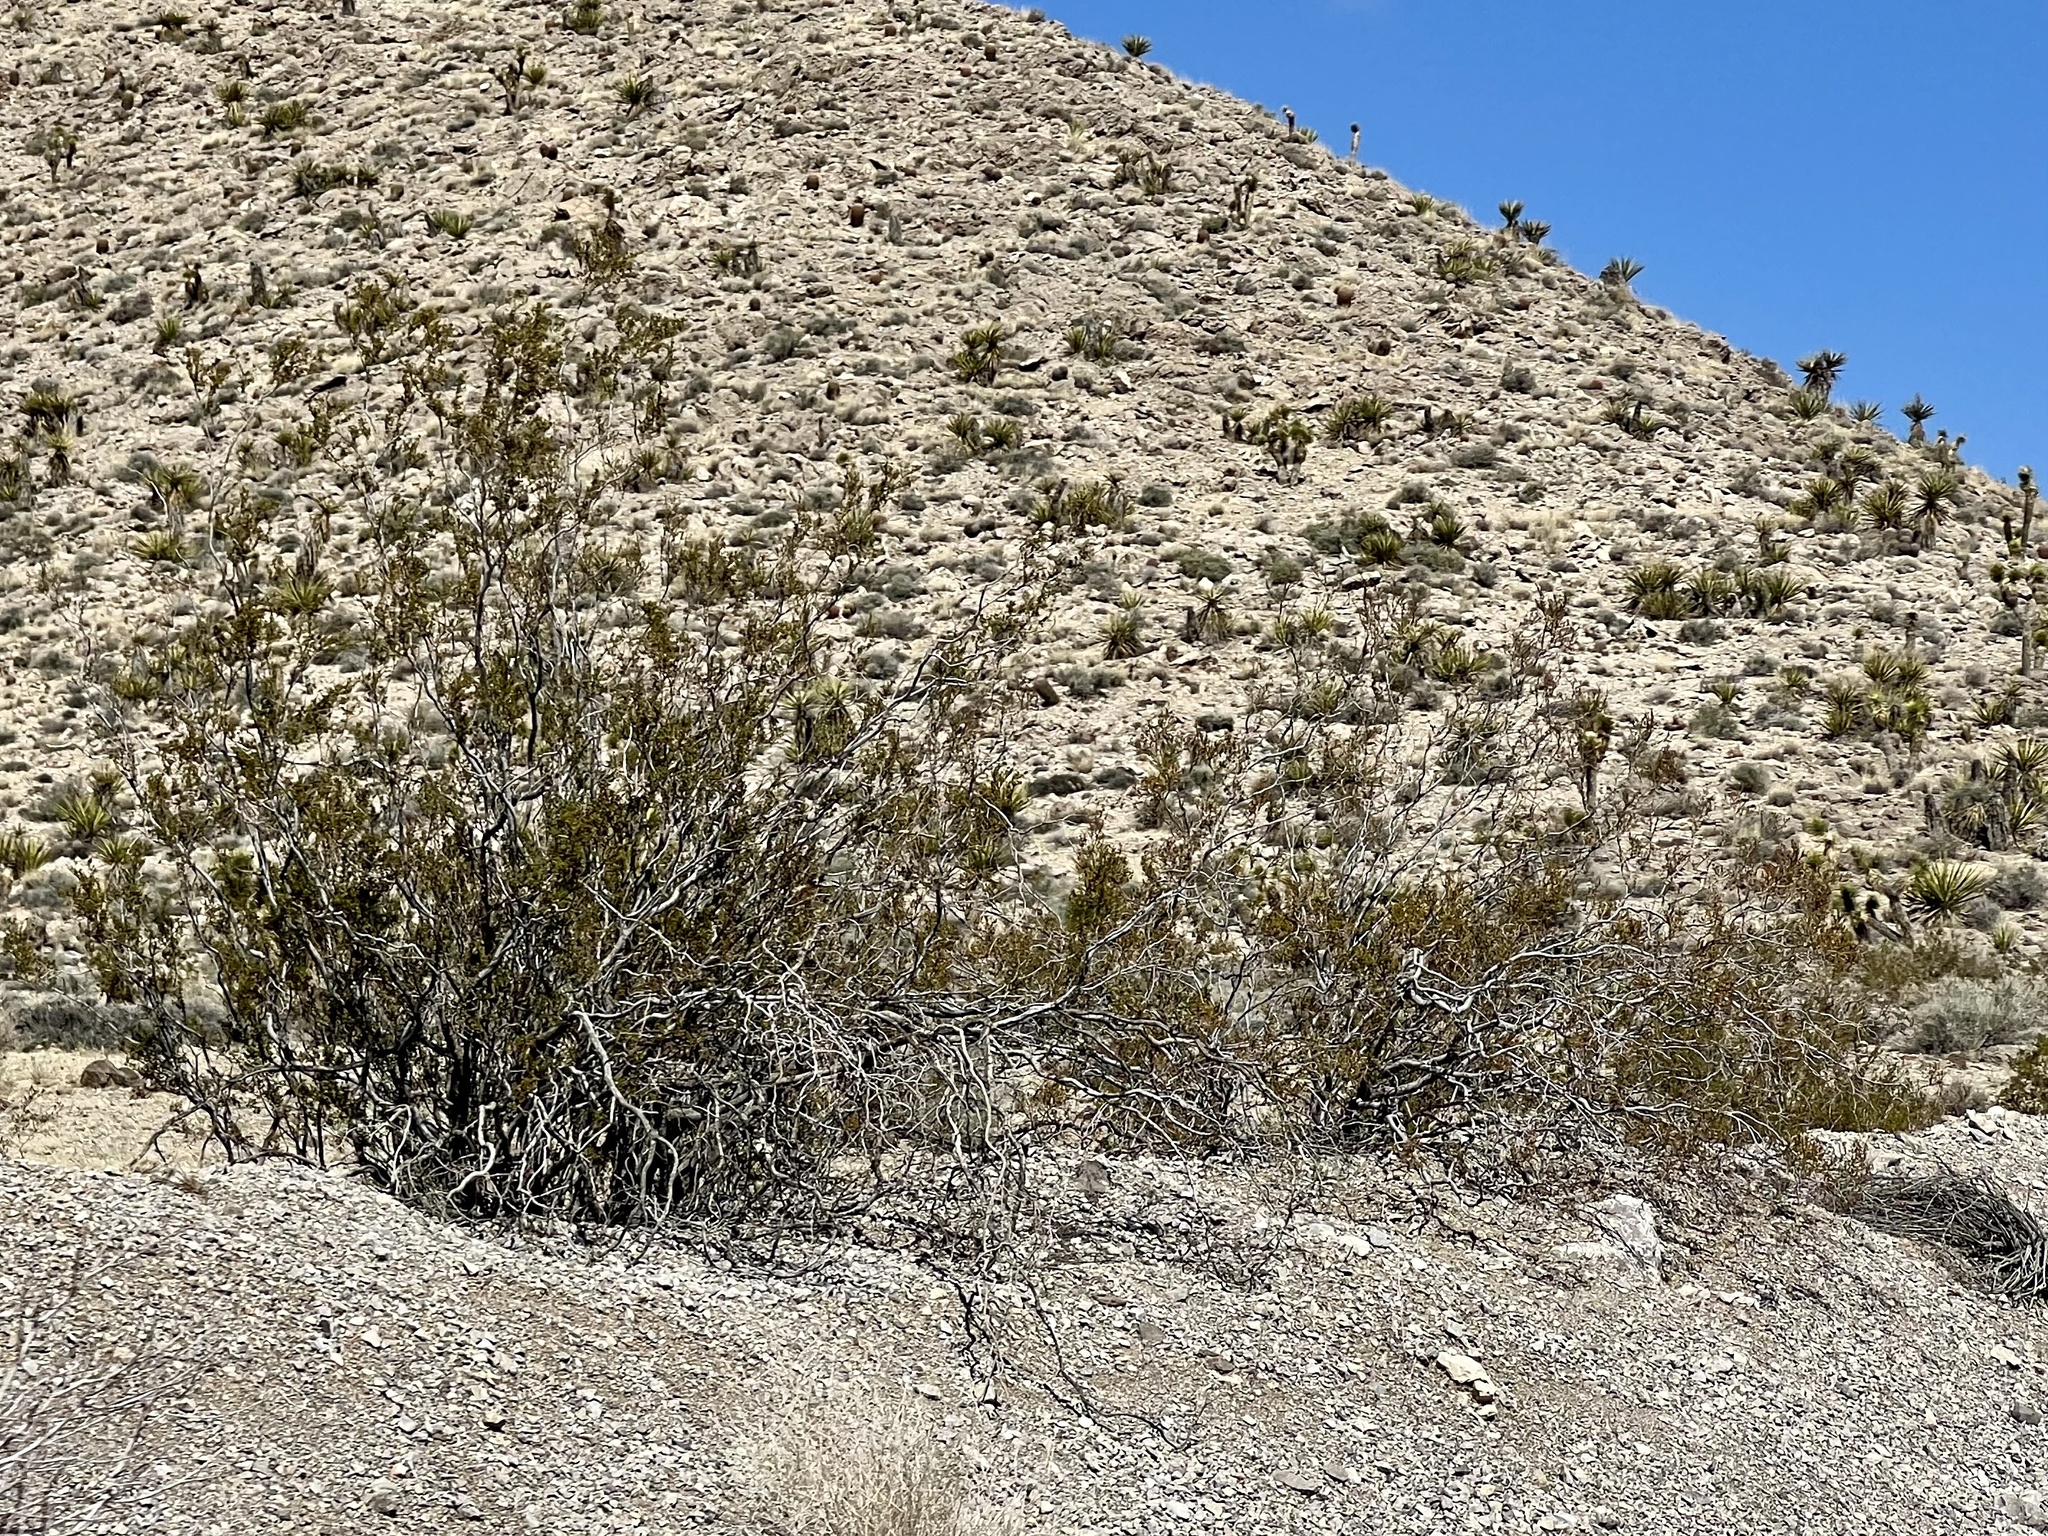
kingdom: Plantae
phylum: Tracheophyta
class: Magnoliopsida
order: Zygophyllales
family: Zygophyllaceae
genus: Larrea
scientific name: Larrea tridentata
